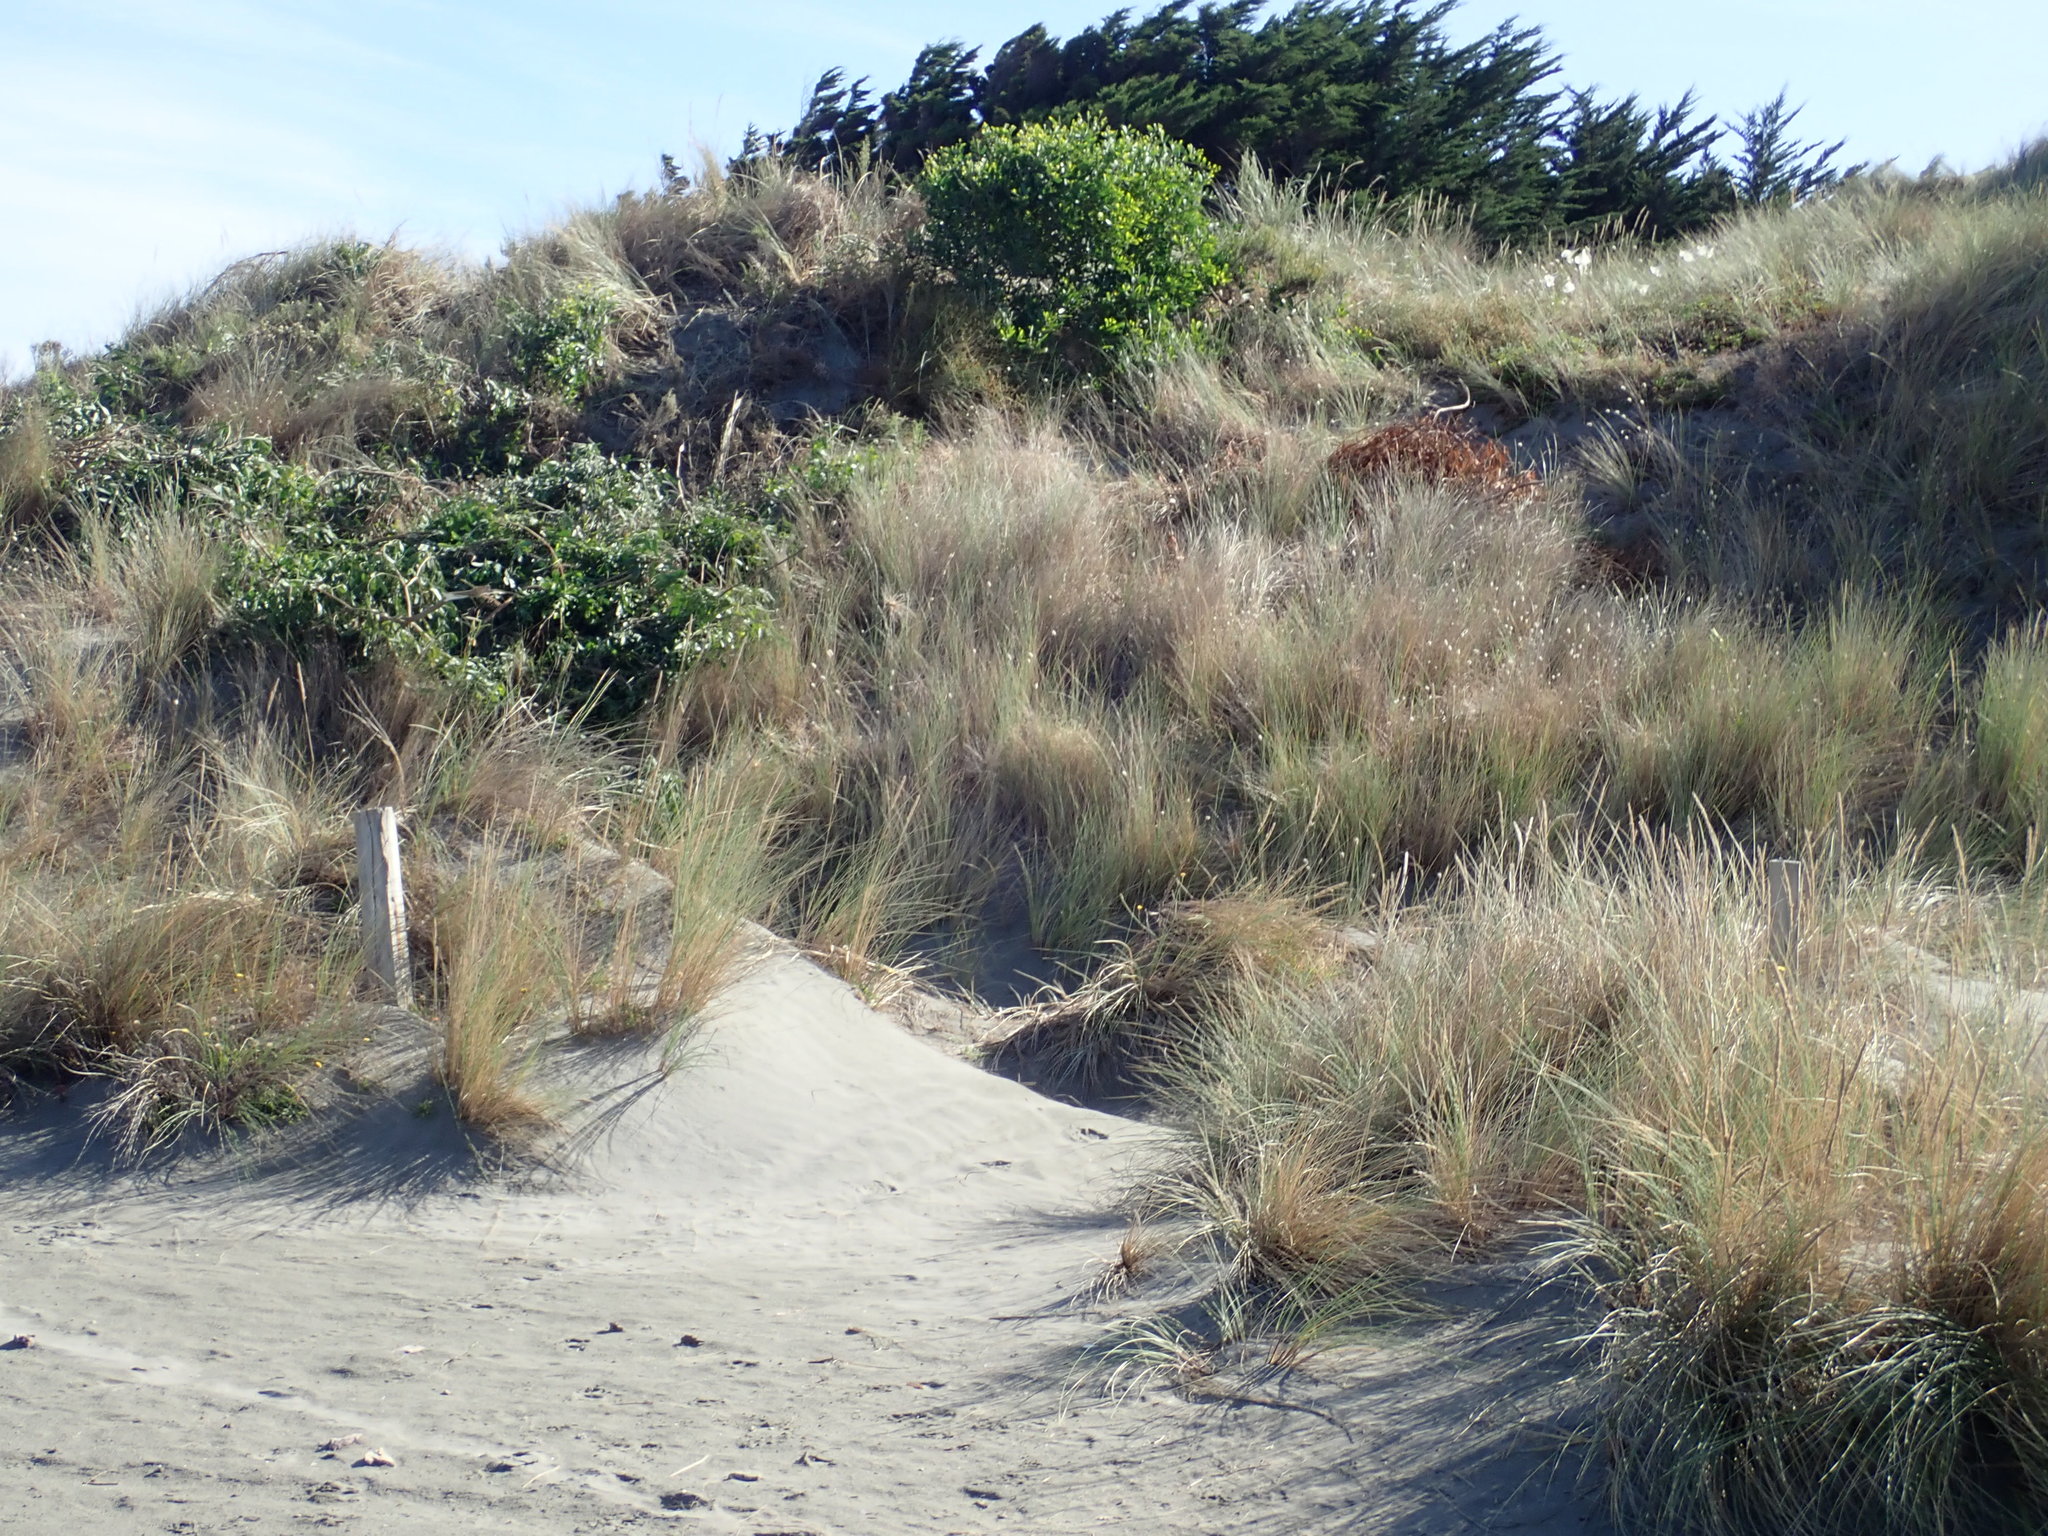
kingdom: Plantae
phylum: Tracheophyta
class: Magnoliopsida
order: Fabales
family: Fabaceae
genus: Acacia
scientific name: Acacia longifolia
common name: Sydney golden wattle
